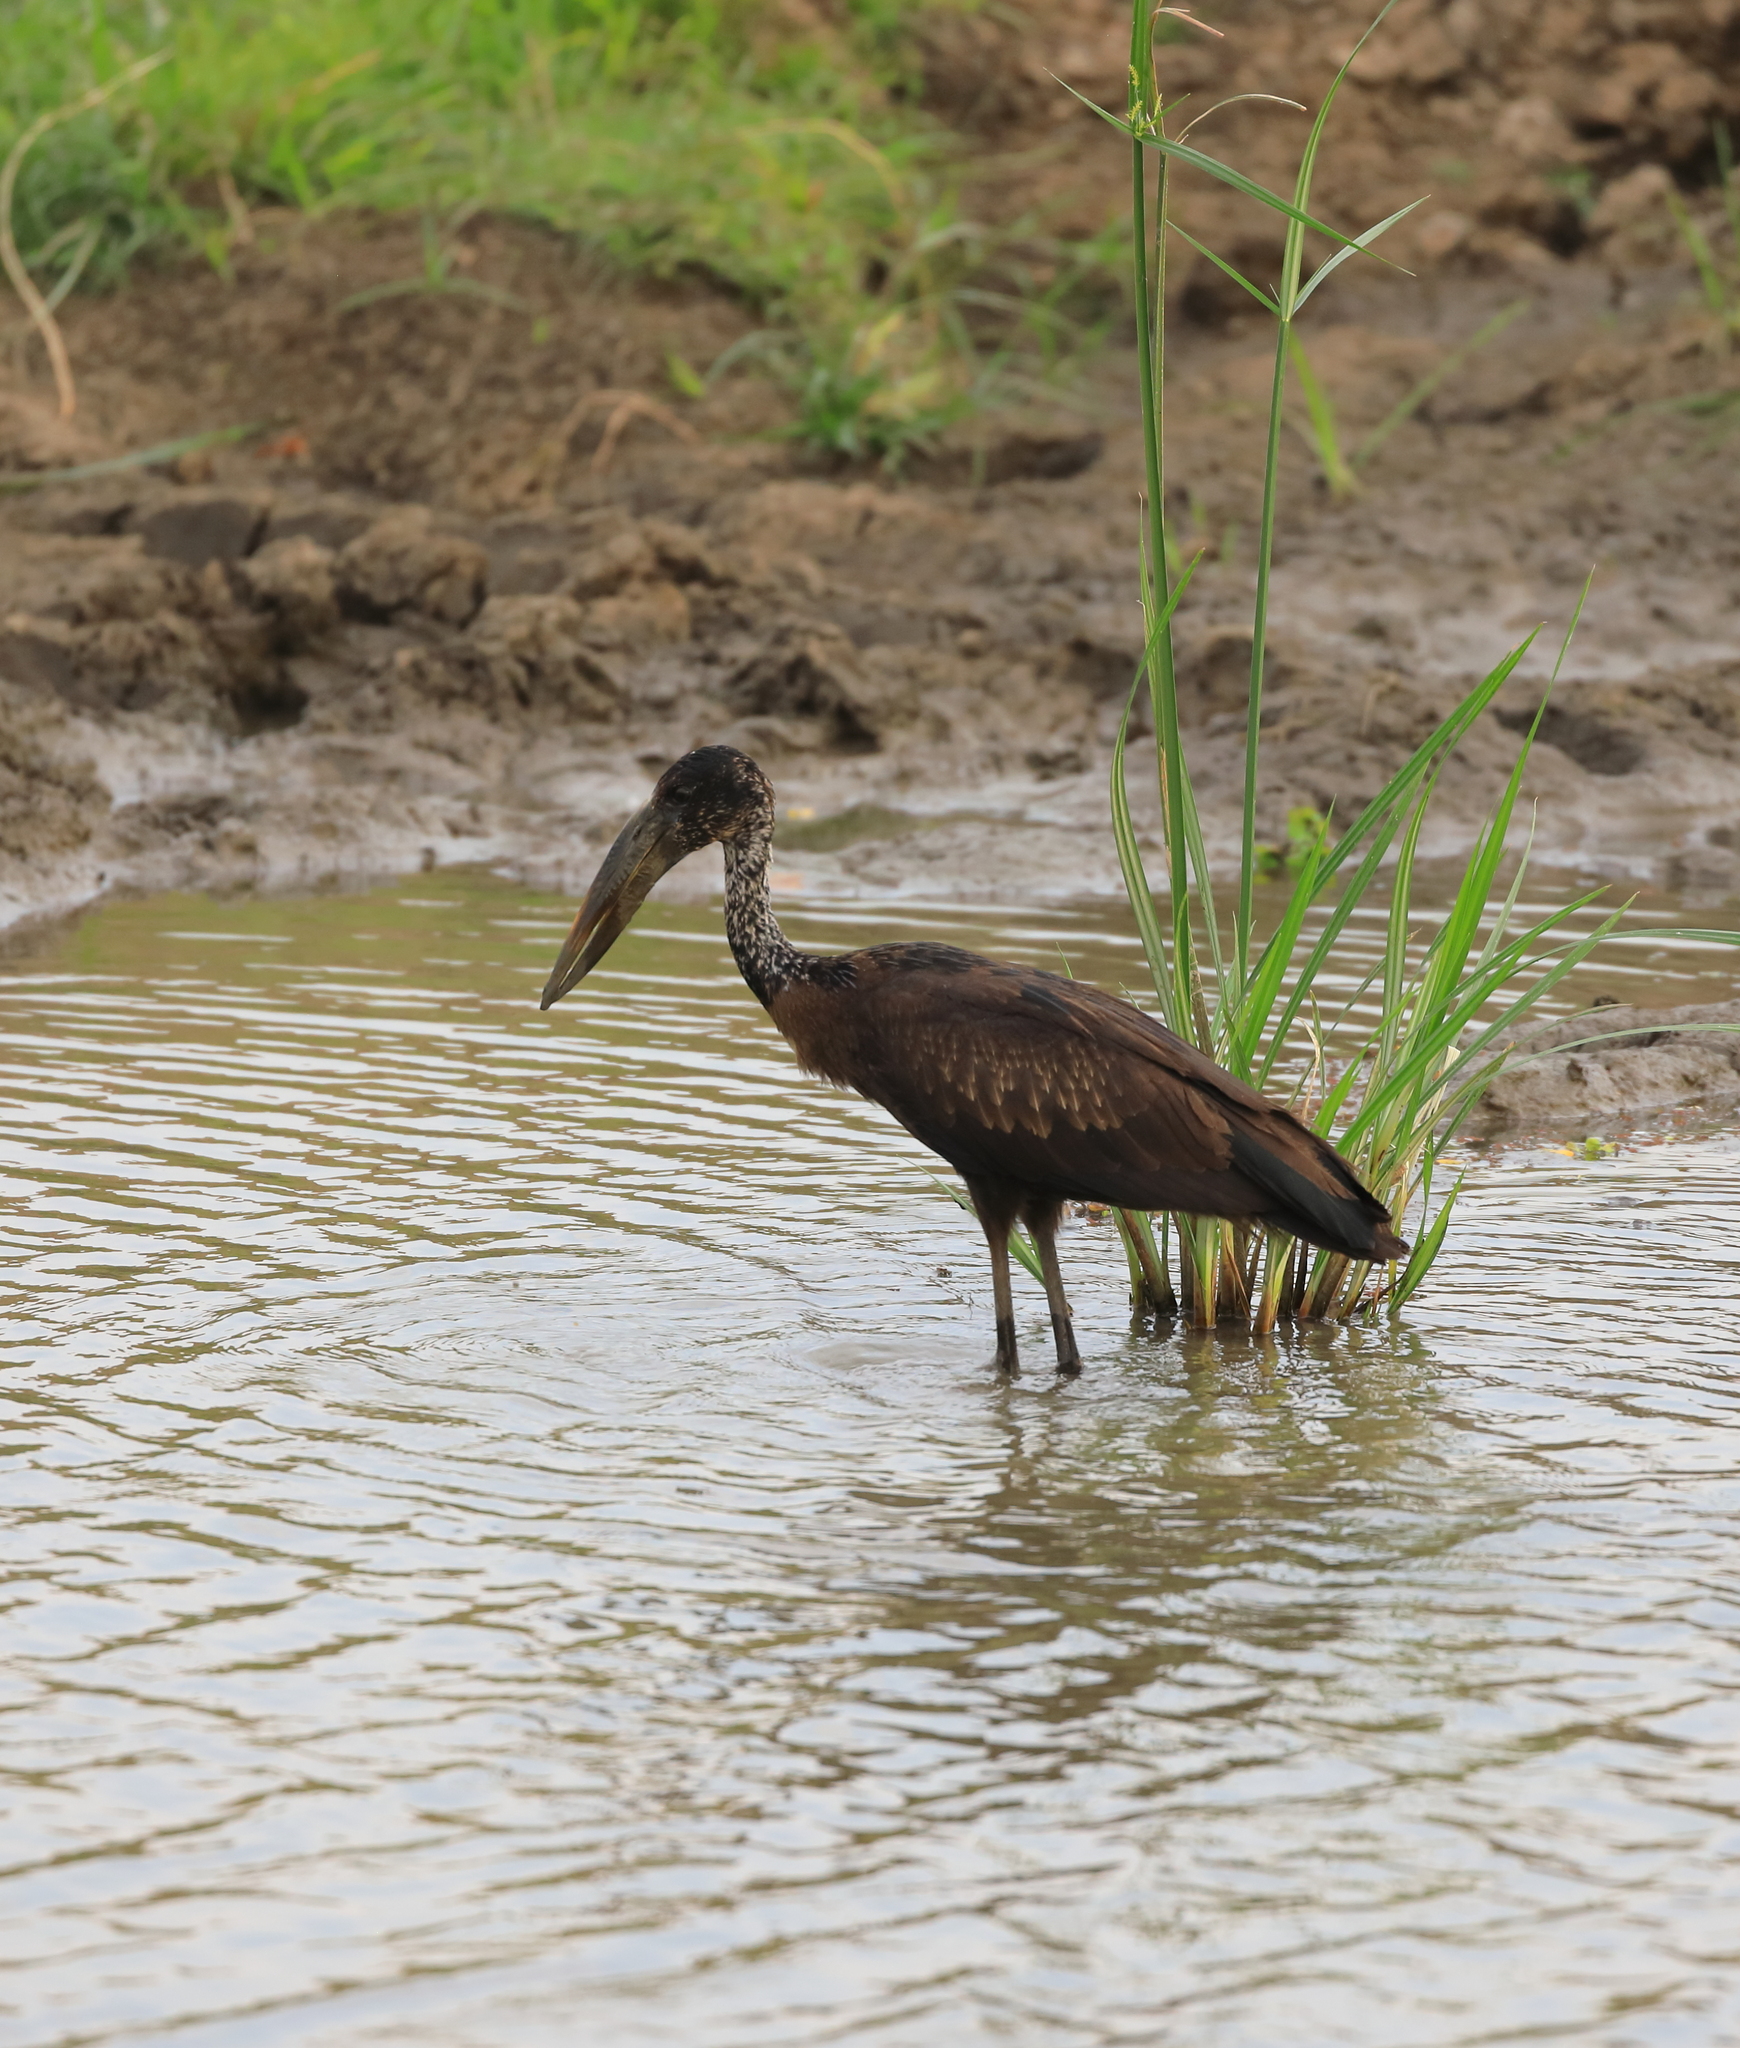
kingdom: Animalia
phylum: Chordata
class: Aves
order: Ciconiiformes
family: Ciconiidae
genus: Anastomus
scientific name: Anastomus lamelligerus
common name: African openbill
